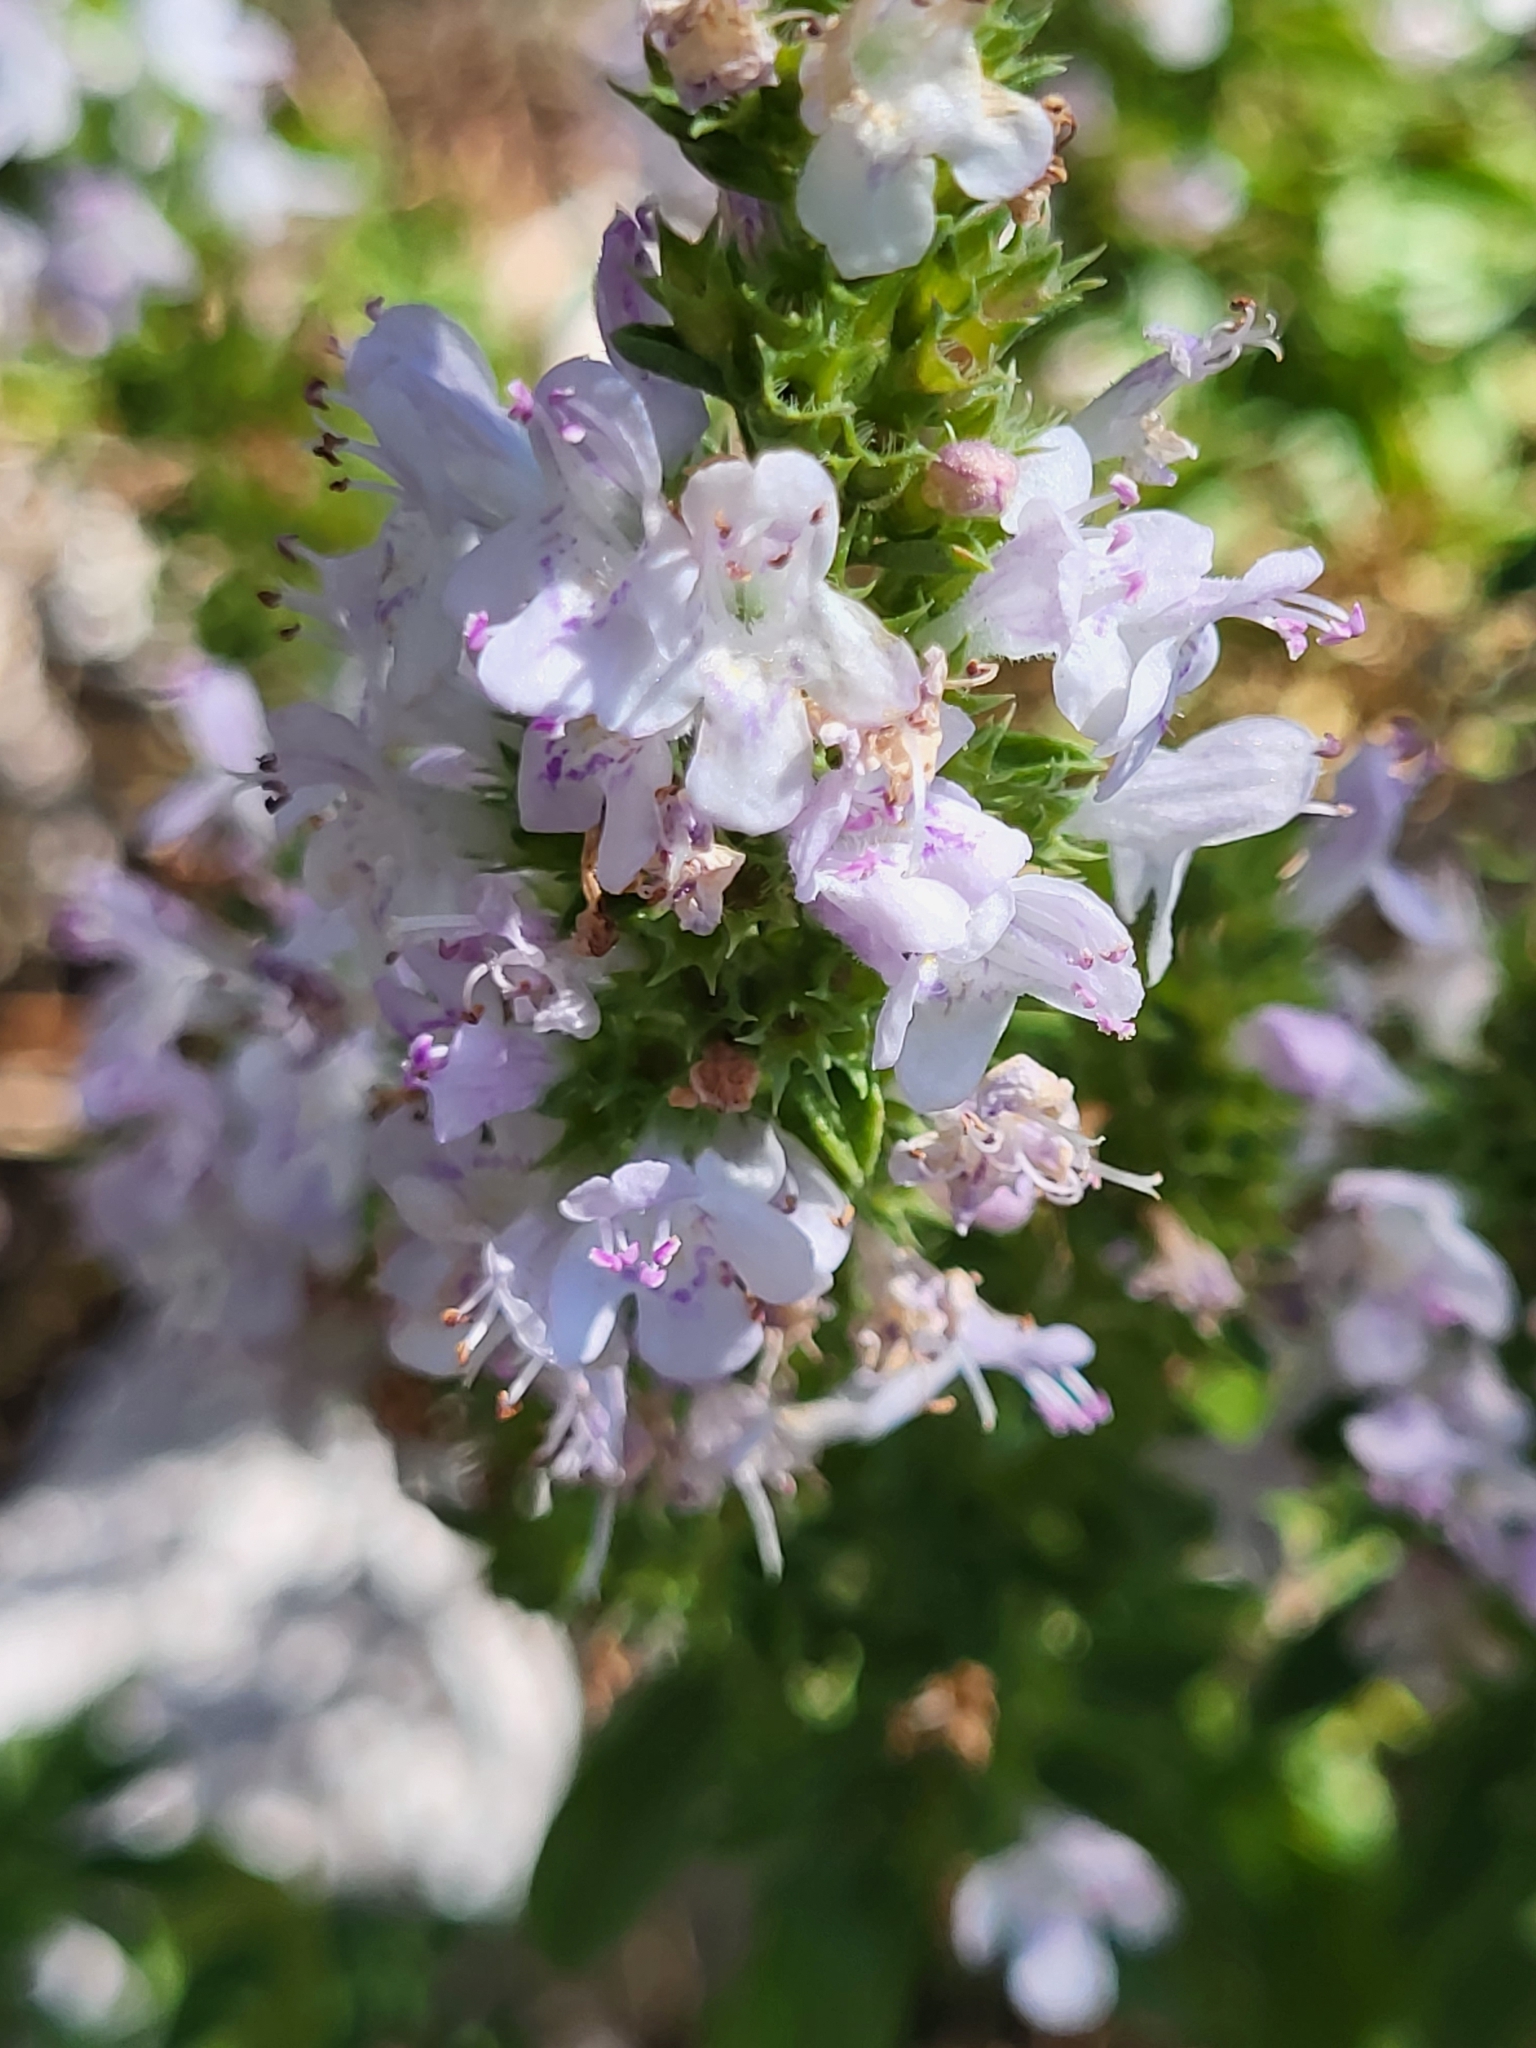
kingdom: Plantae
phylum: Tracheophyta
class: Magnoliopsida
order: Lamiales
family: Lamiaceae
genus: Satureja
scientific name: Satureja montana
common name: Winter savory
